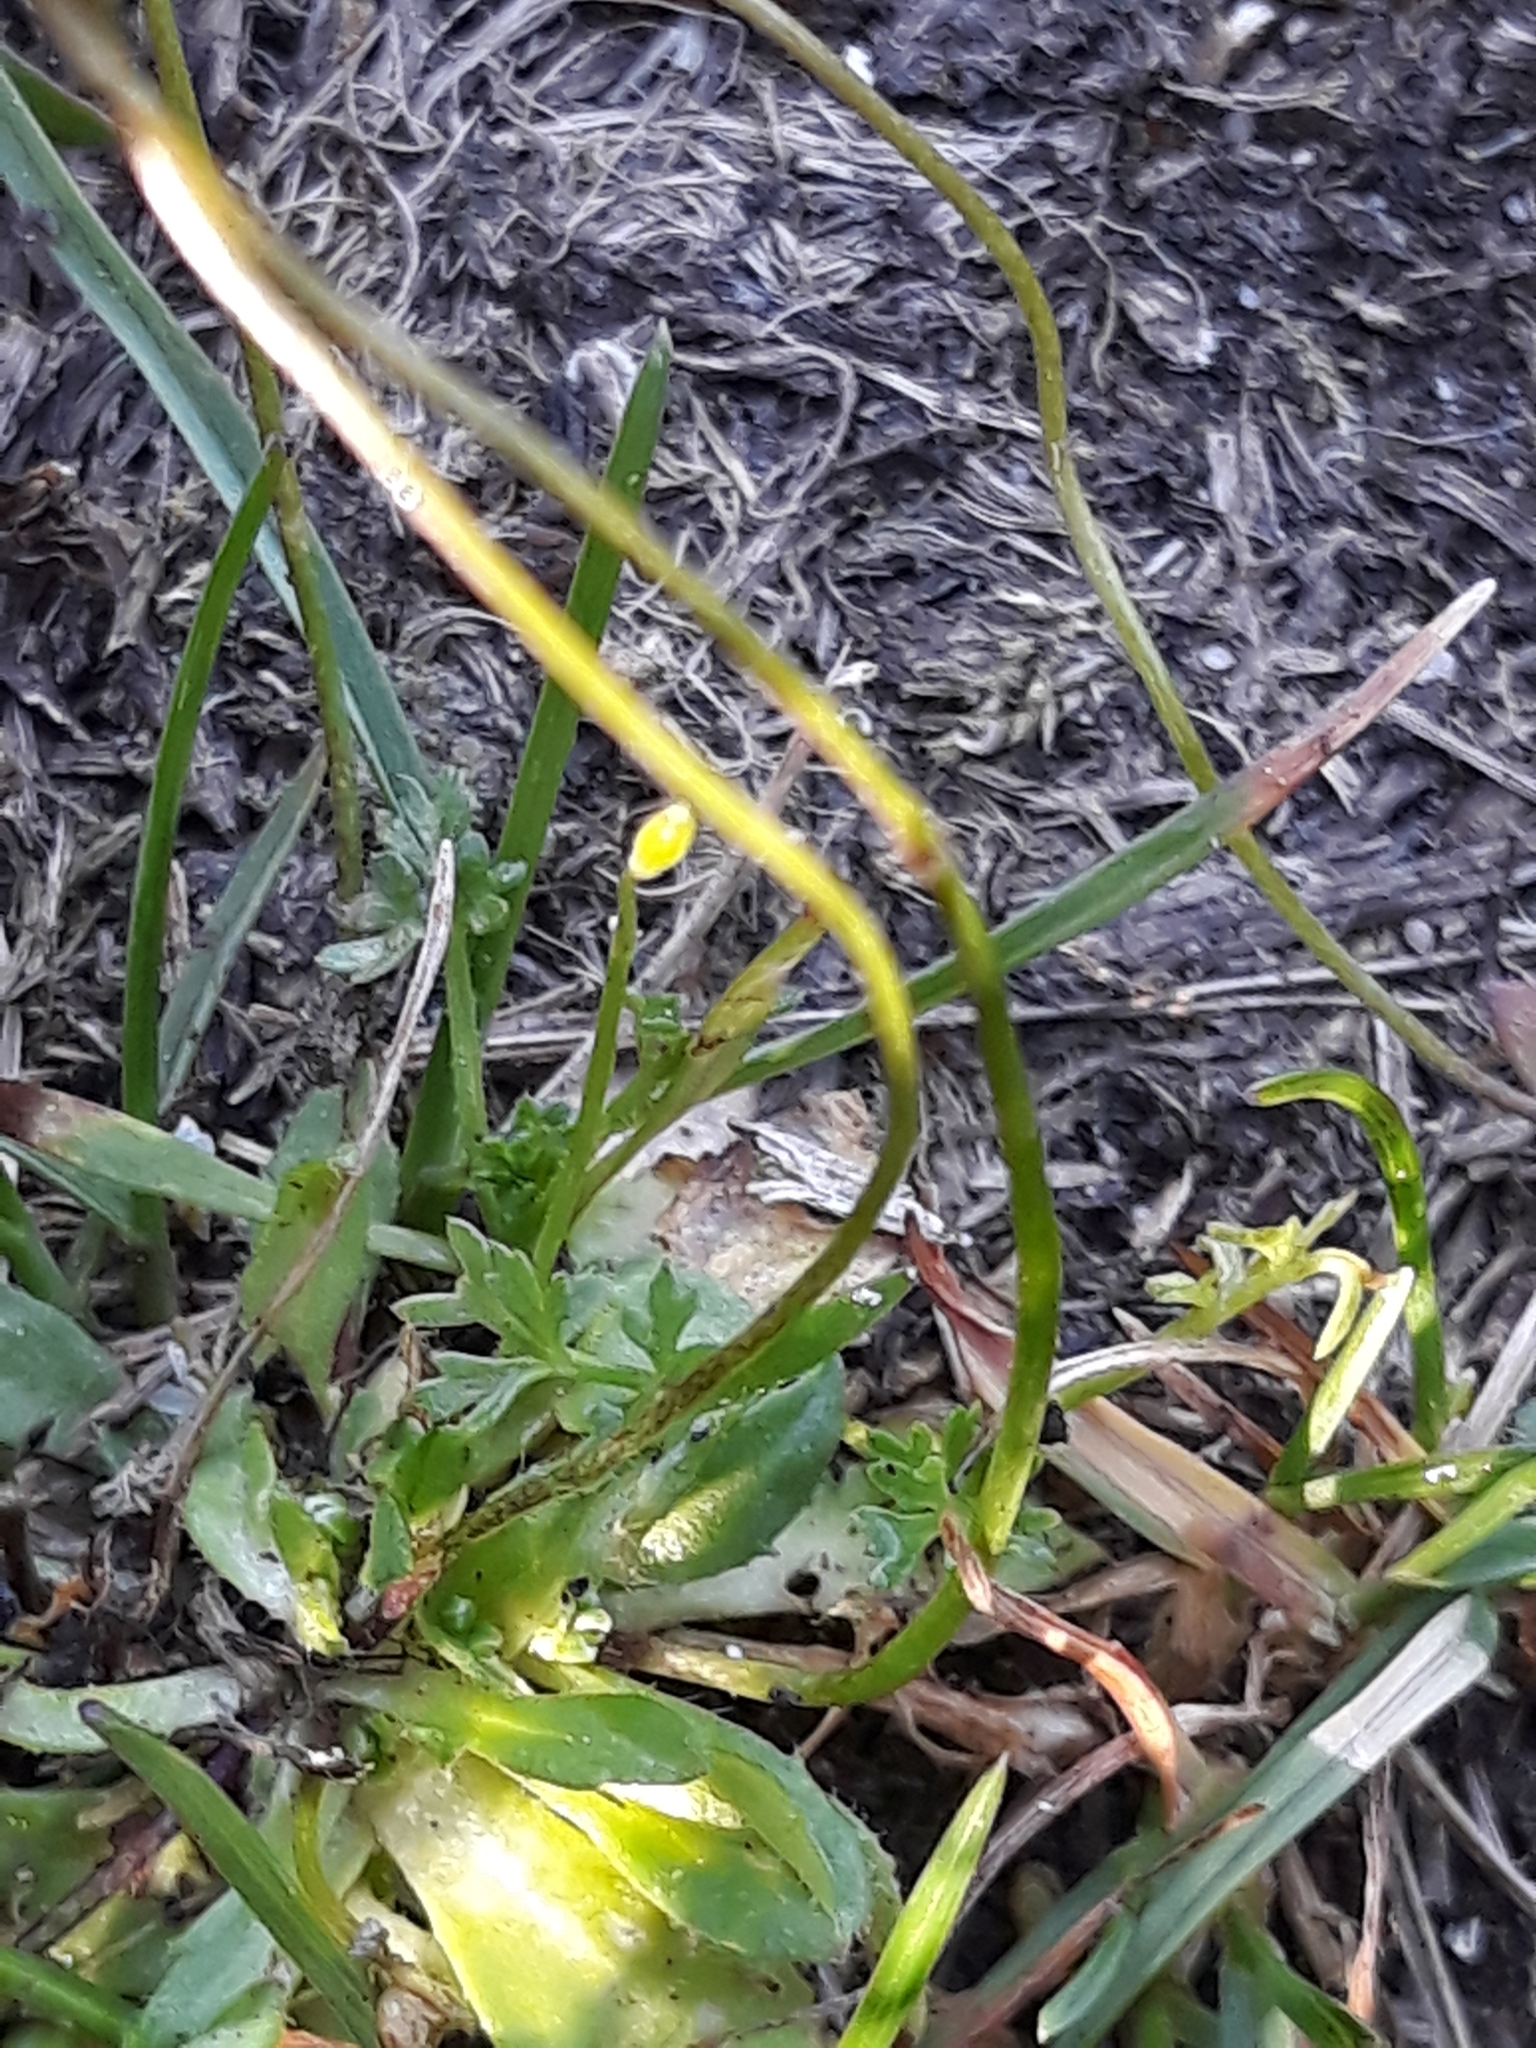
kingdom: Plantae
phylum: Tracheophyta
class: Magnoliopsida
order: Brassicales
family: Brassicaceae
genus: Draba
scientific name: Draba verna
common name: Spring draba
